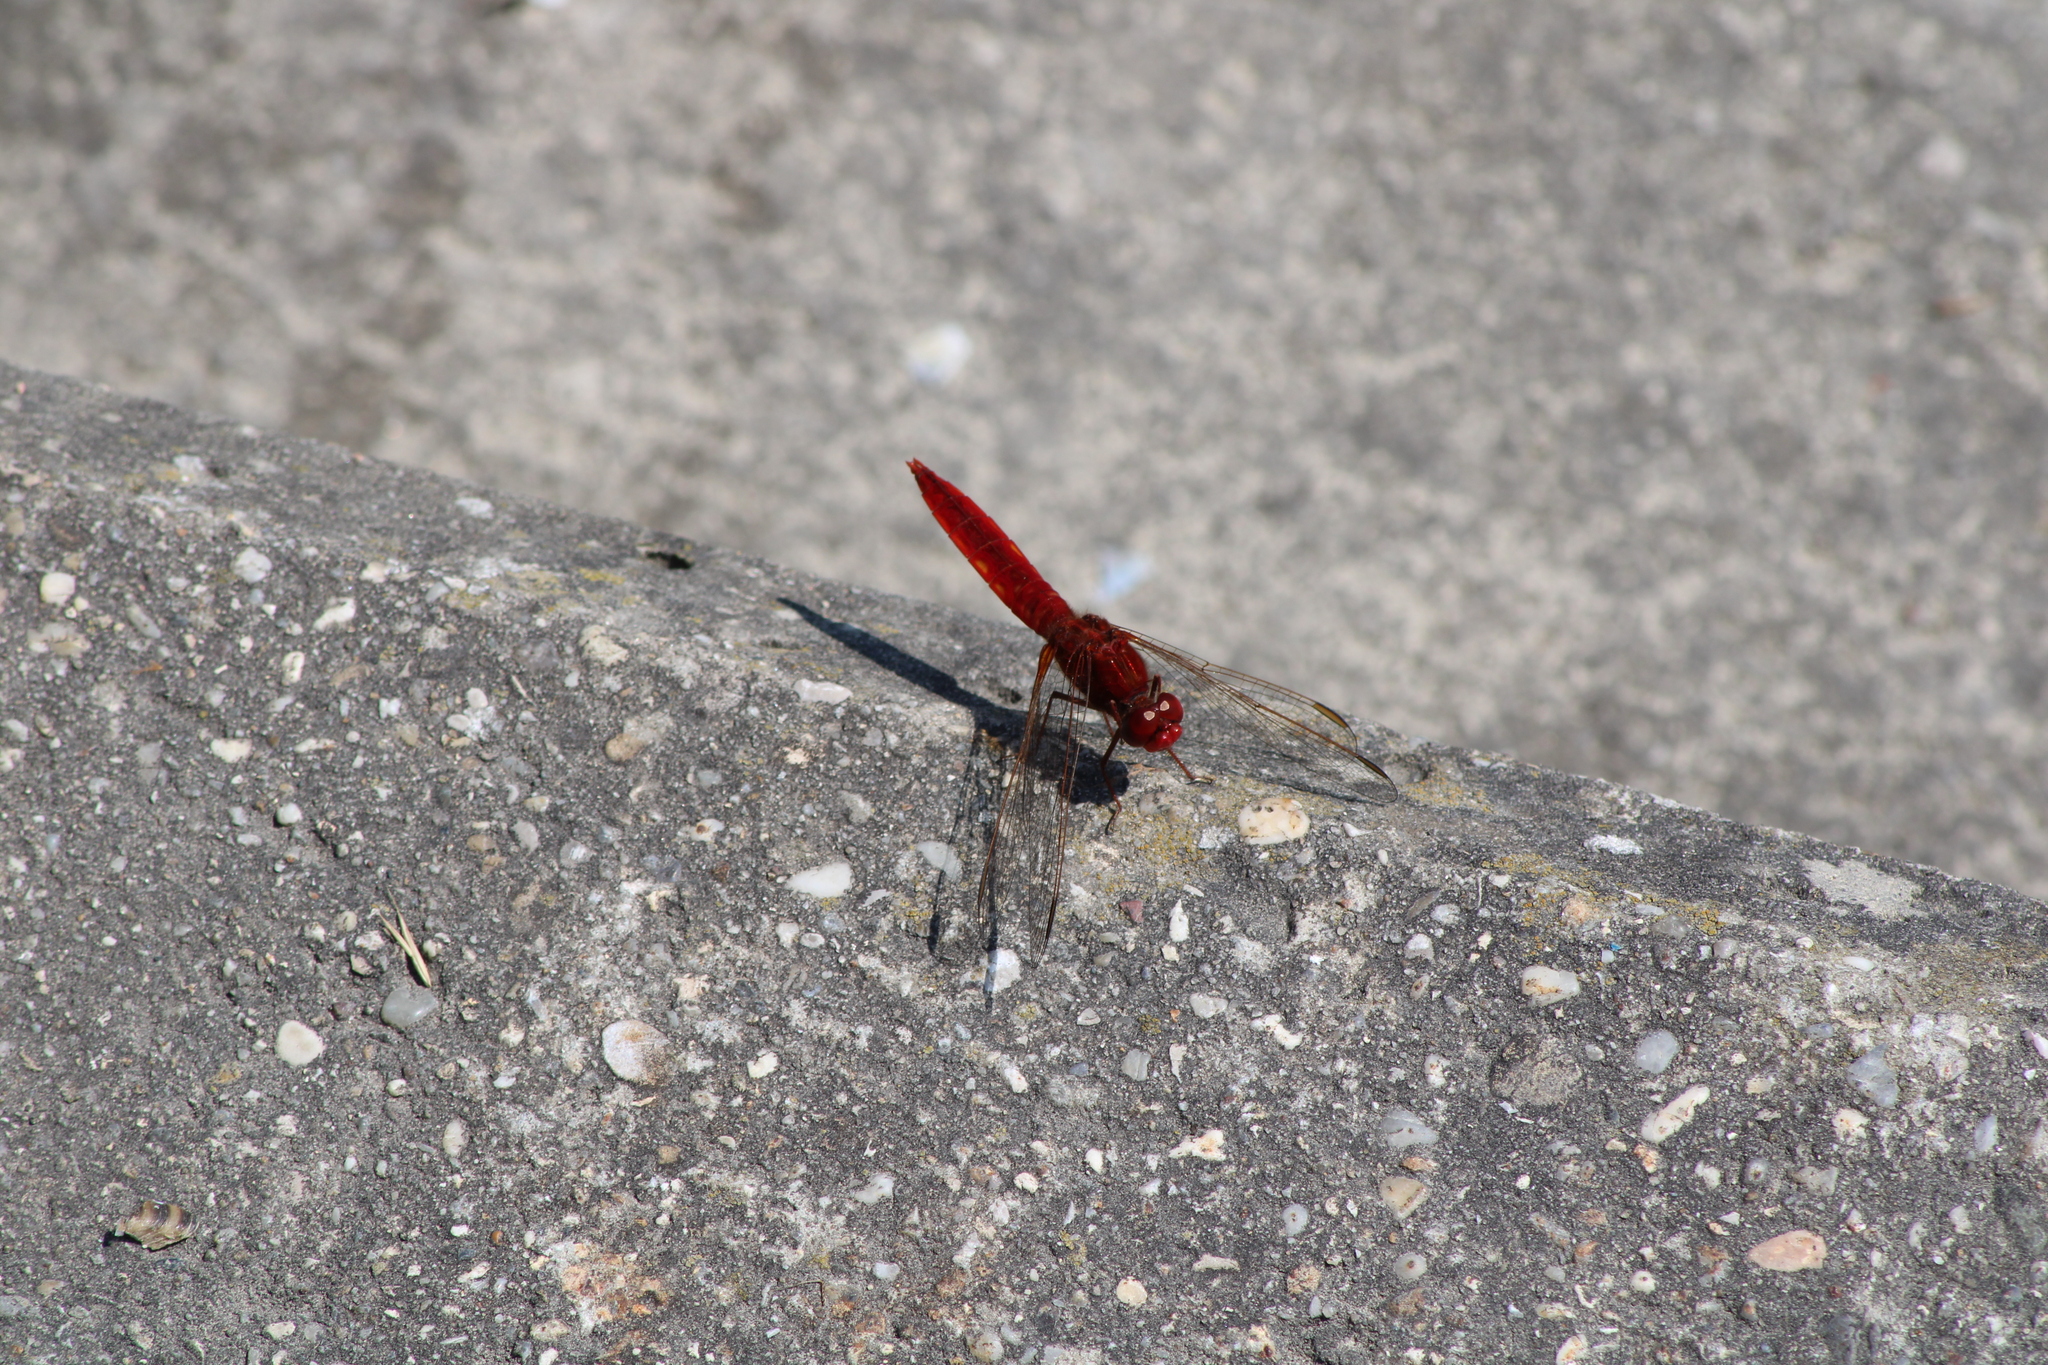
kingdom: Animalia
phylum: Arthropoda
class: Insecta
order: Odonata
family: Libellulidae
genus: Crocothemis
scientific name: Crocothemis erythraea
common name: Scarlet dragonfly
